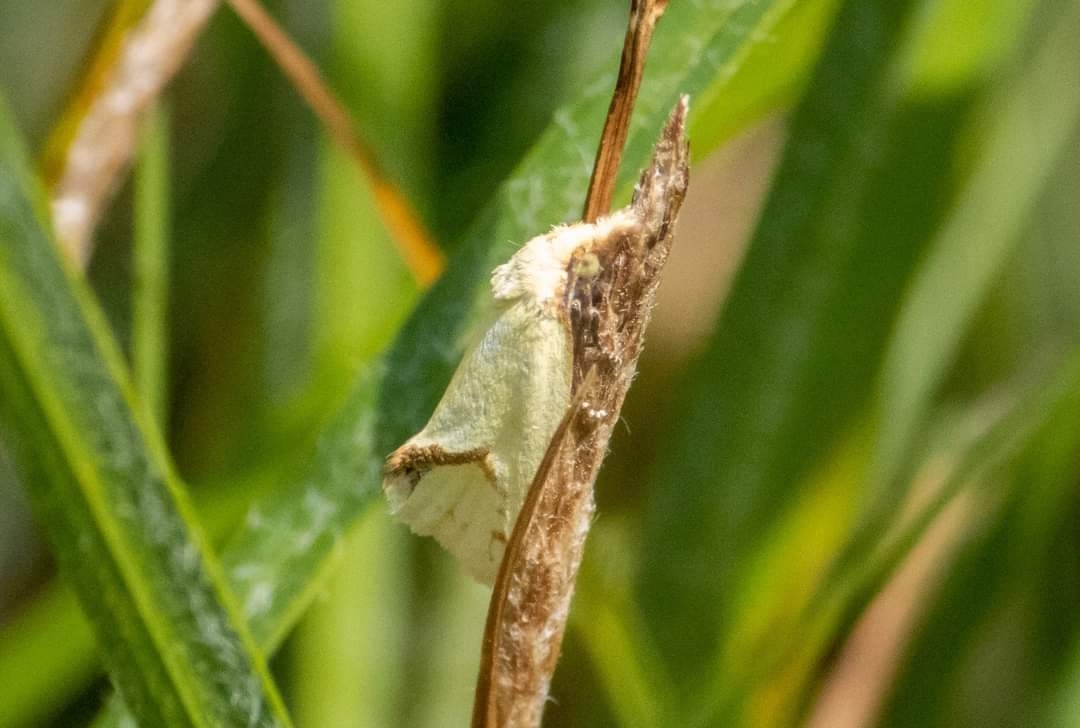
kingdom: Animalia
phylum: Arthropoda
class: Insecta
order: Lepidoptera
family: Tortricidae
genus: Agapeta
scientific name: Agapeta hamana
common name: Common yellow conch
